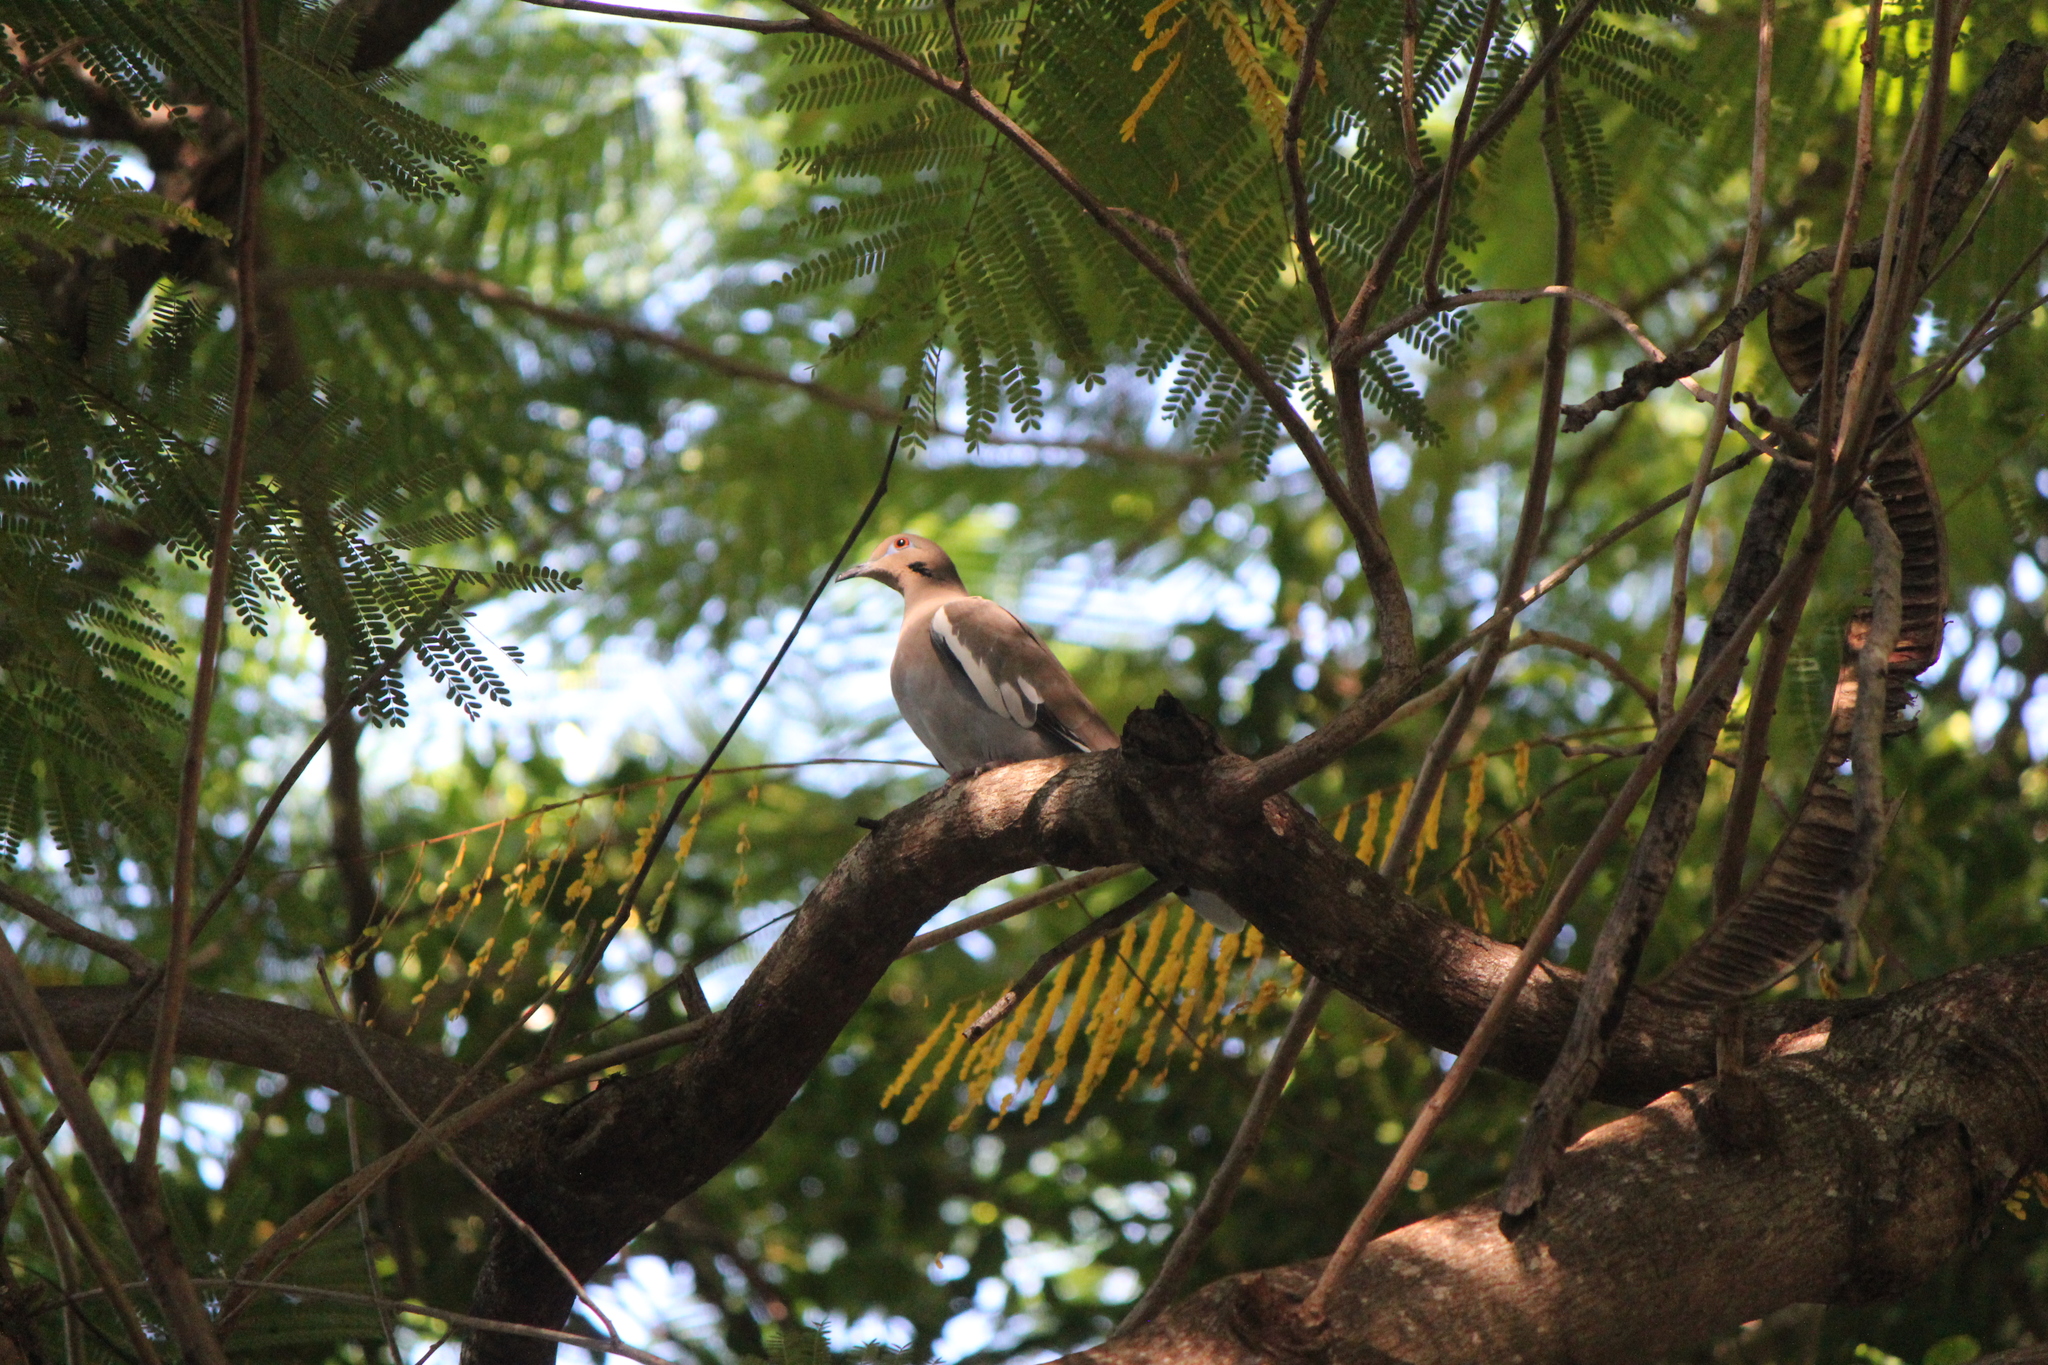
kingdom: Animalia
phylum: Chordata
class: Aves
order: Columbiformes
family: Columbidae
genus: Zenaida
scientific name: Zenaida asiatica
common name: White-winged dove
